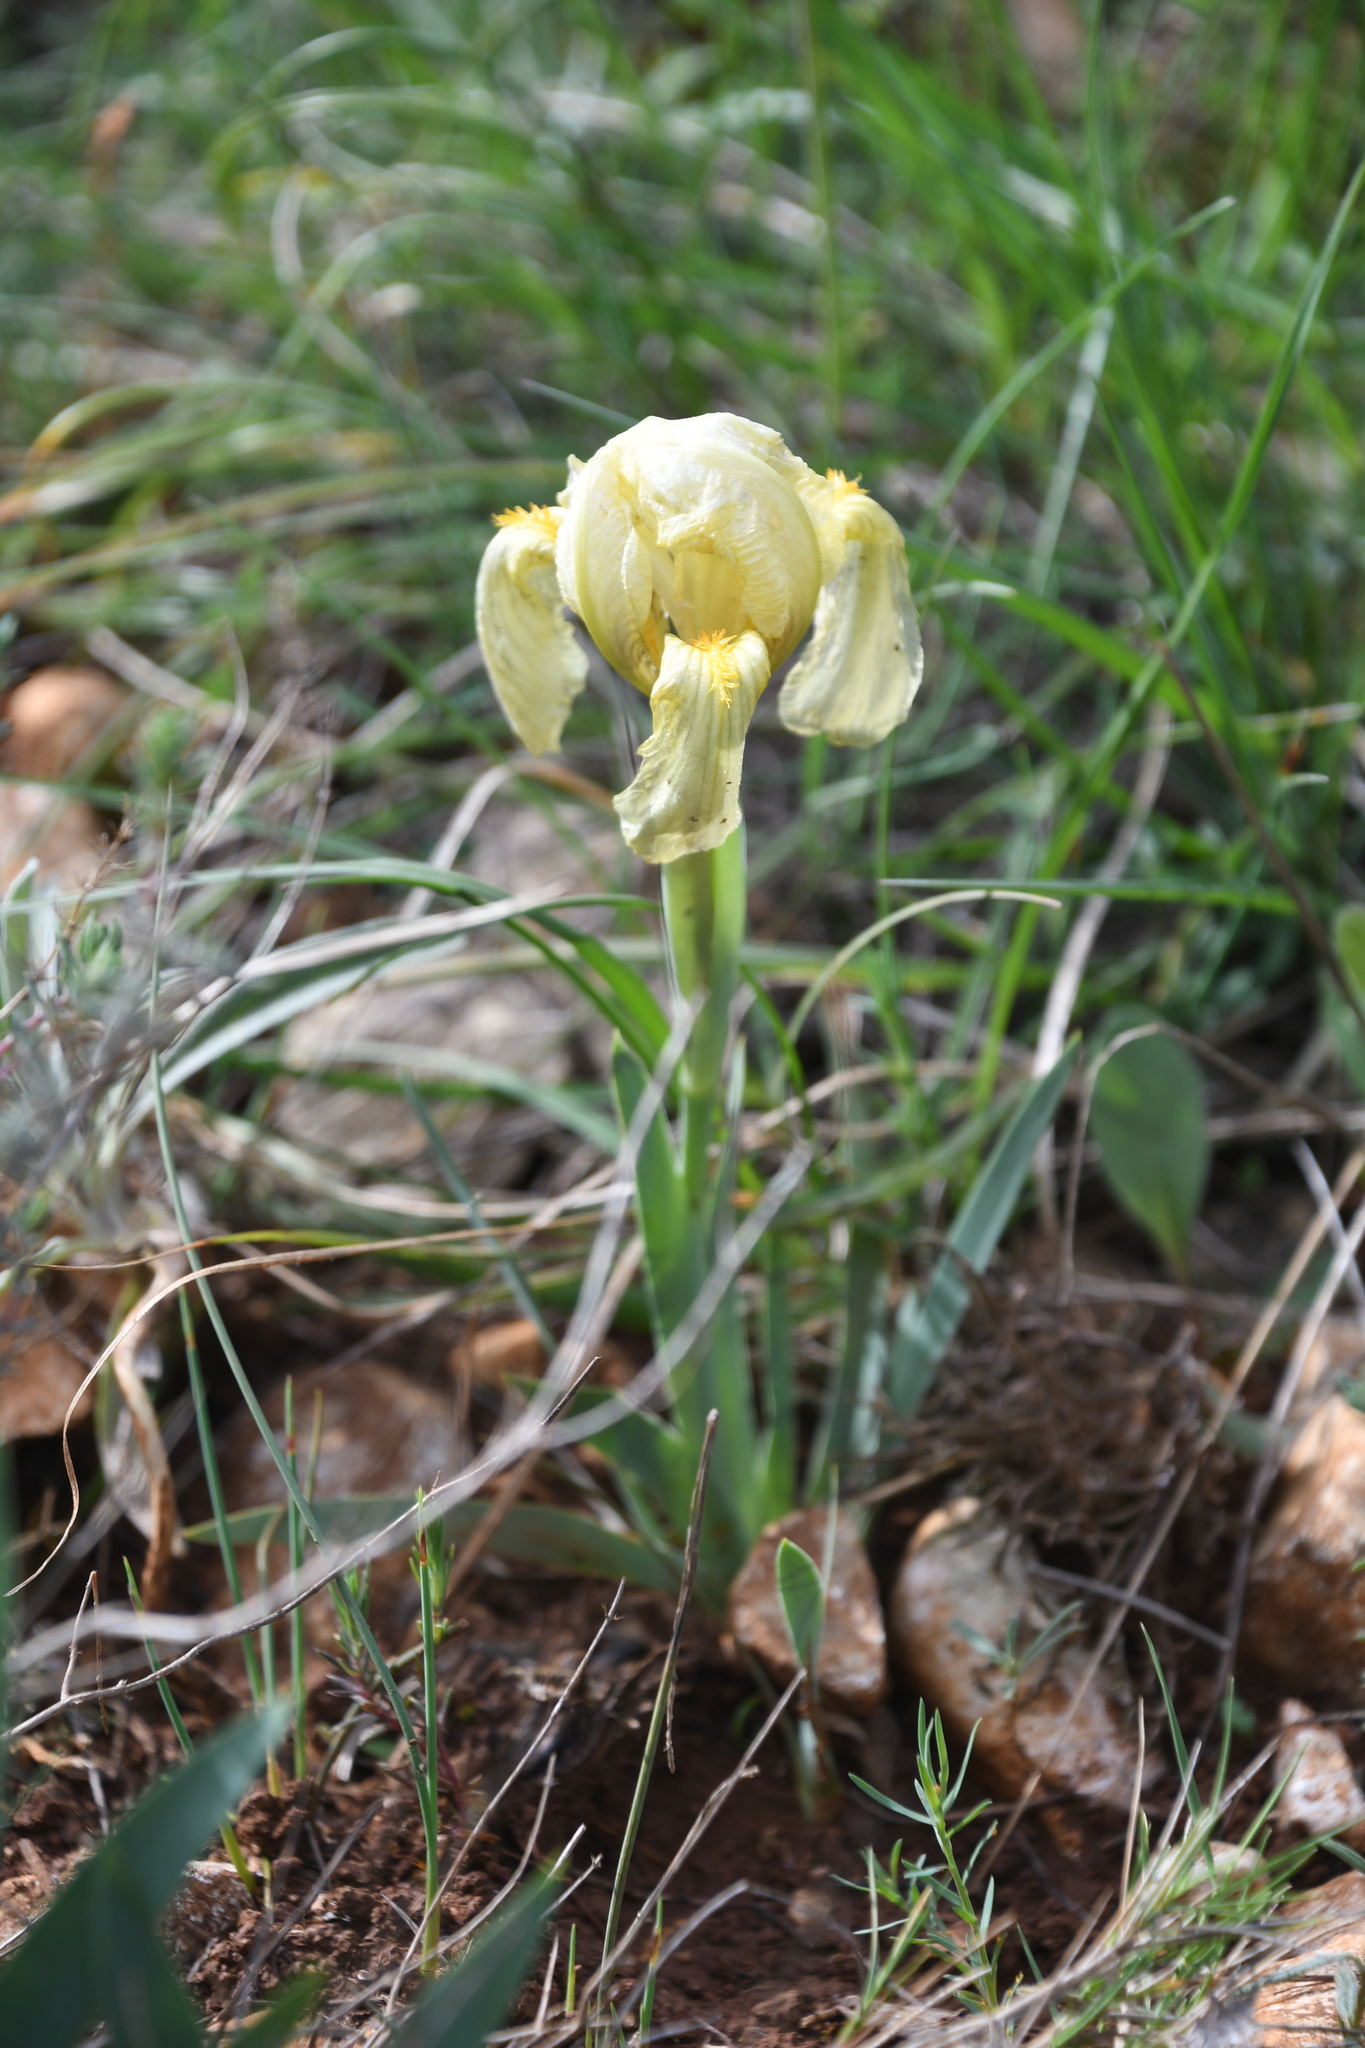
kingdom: Plantae
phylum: Tracheophyta
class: Liliopsida
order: Asparagales
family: Iridaceae
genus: Iris
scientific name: Iris lutescens
